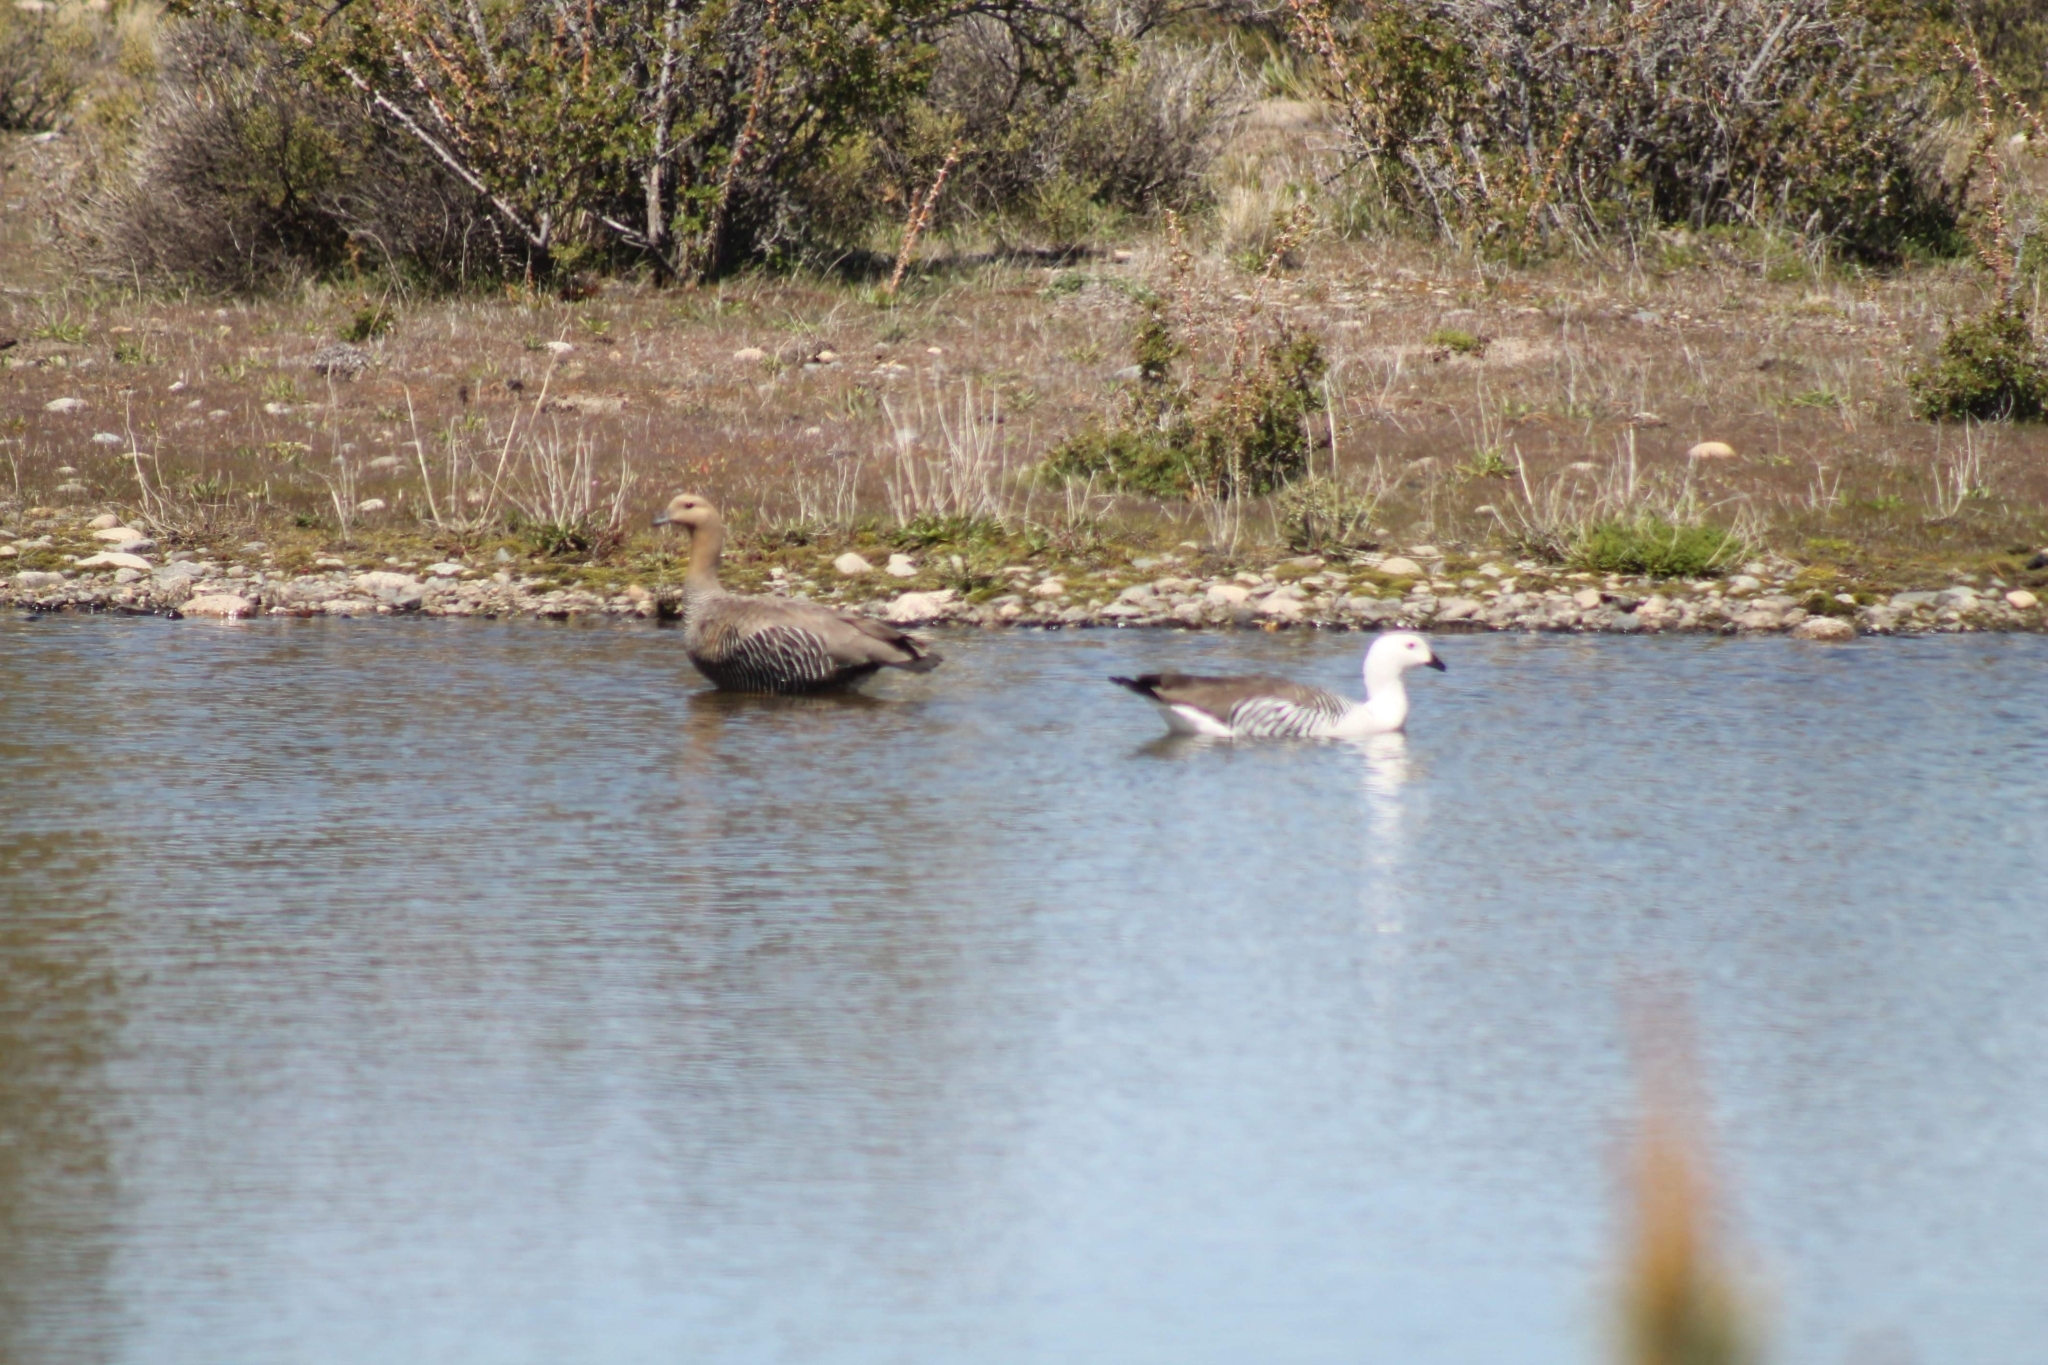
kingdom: Animalia
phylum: Chordata
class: Aves
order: Anseriformes
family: Anatidae
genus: Chloephaga
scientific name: Chloephaga picta
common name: Upland goose
